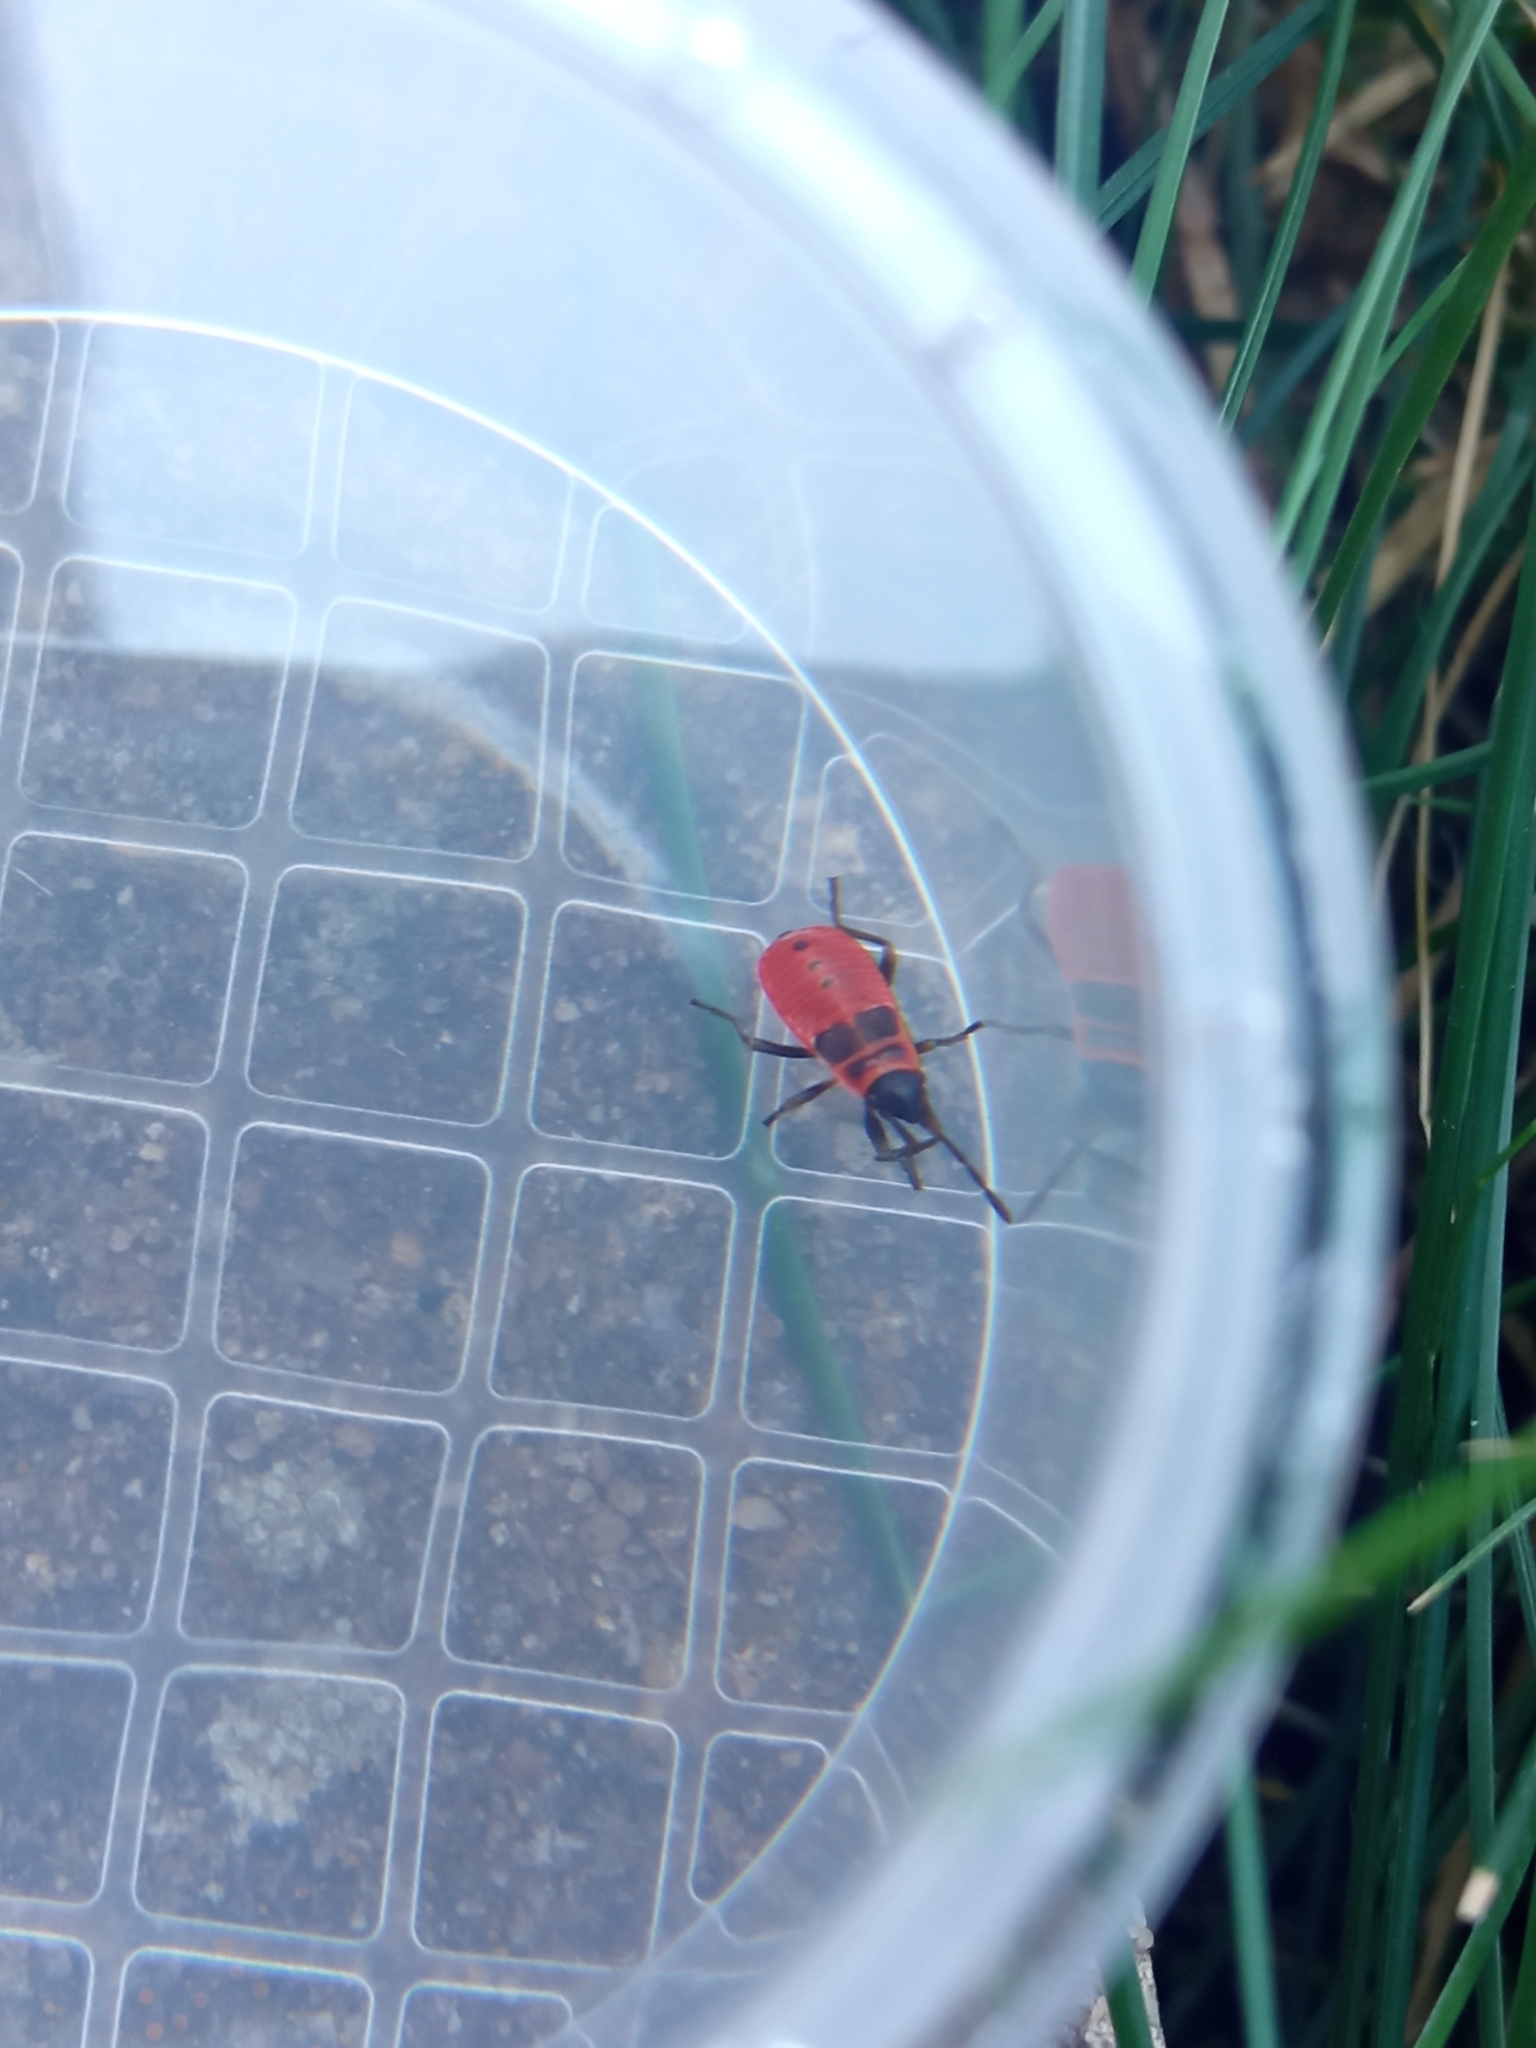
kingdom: Animalia
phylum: Arthropoda
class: Insecta
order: Hemiptera
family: Pyrrhocoridae
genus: Pyrrhocoris
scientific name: Pyrrhocoris apterus
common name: Firebug
